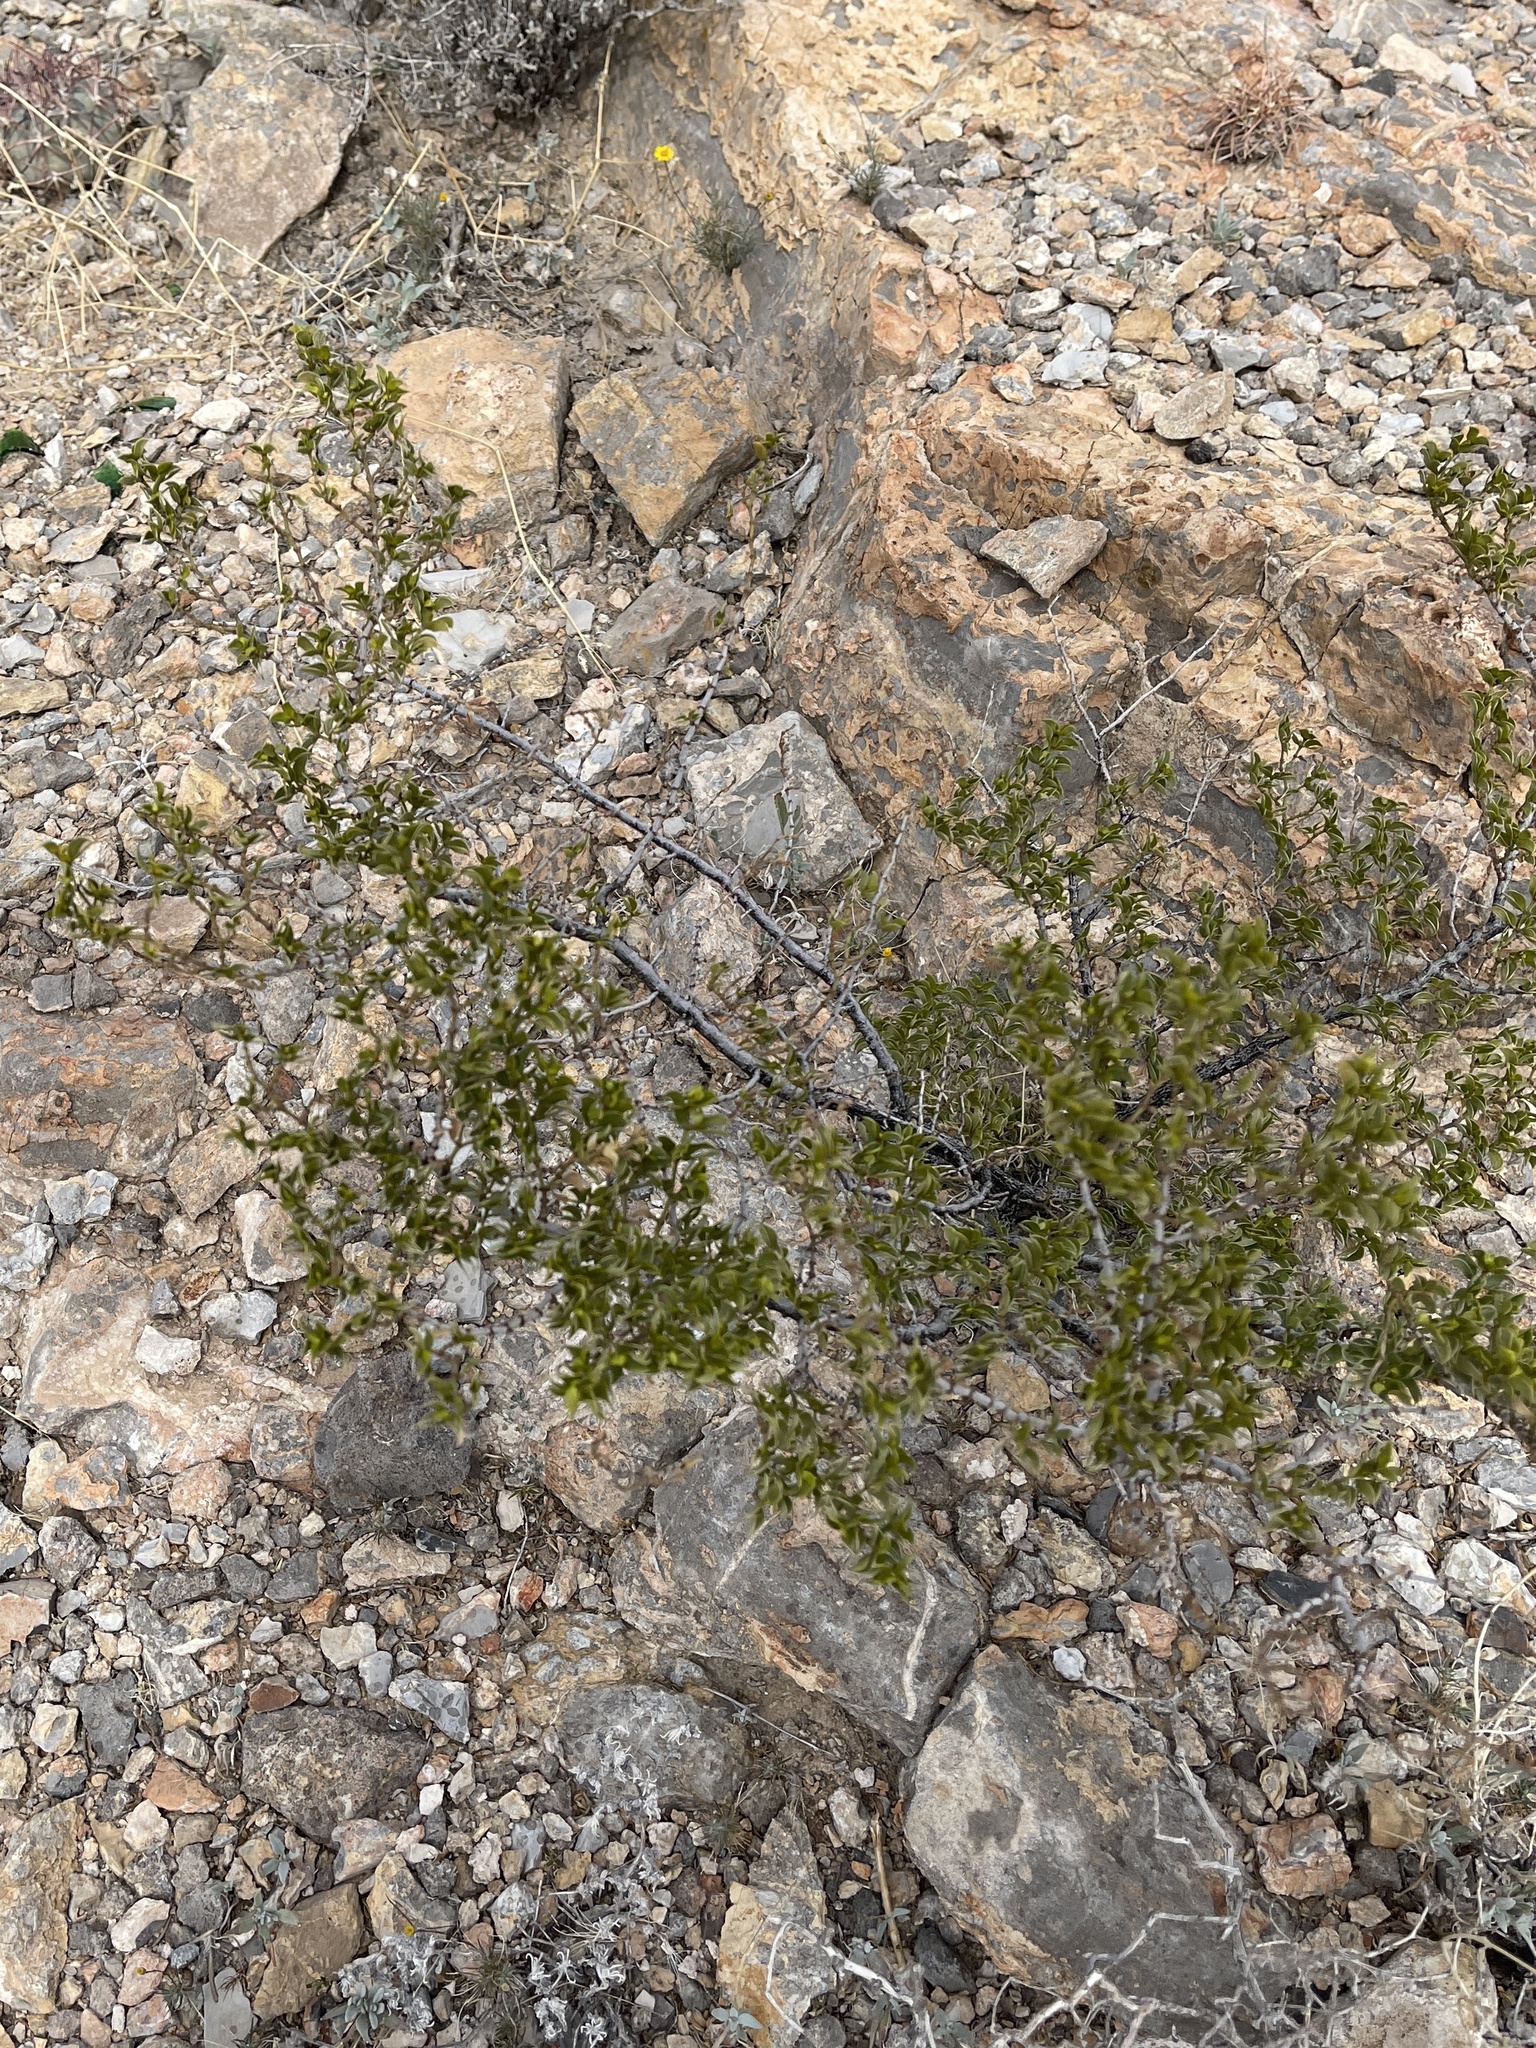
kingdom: Plantae
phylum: Tracheophyta
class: Magnoliopsida
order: Zygophyllales
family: Zygophyllaceae
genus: Larrea
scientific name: Larrea tridentata
